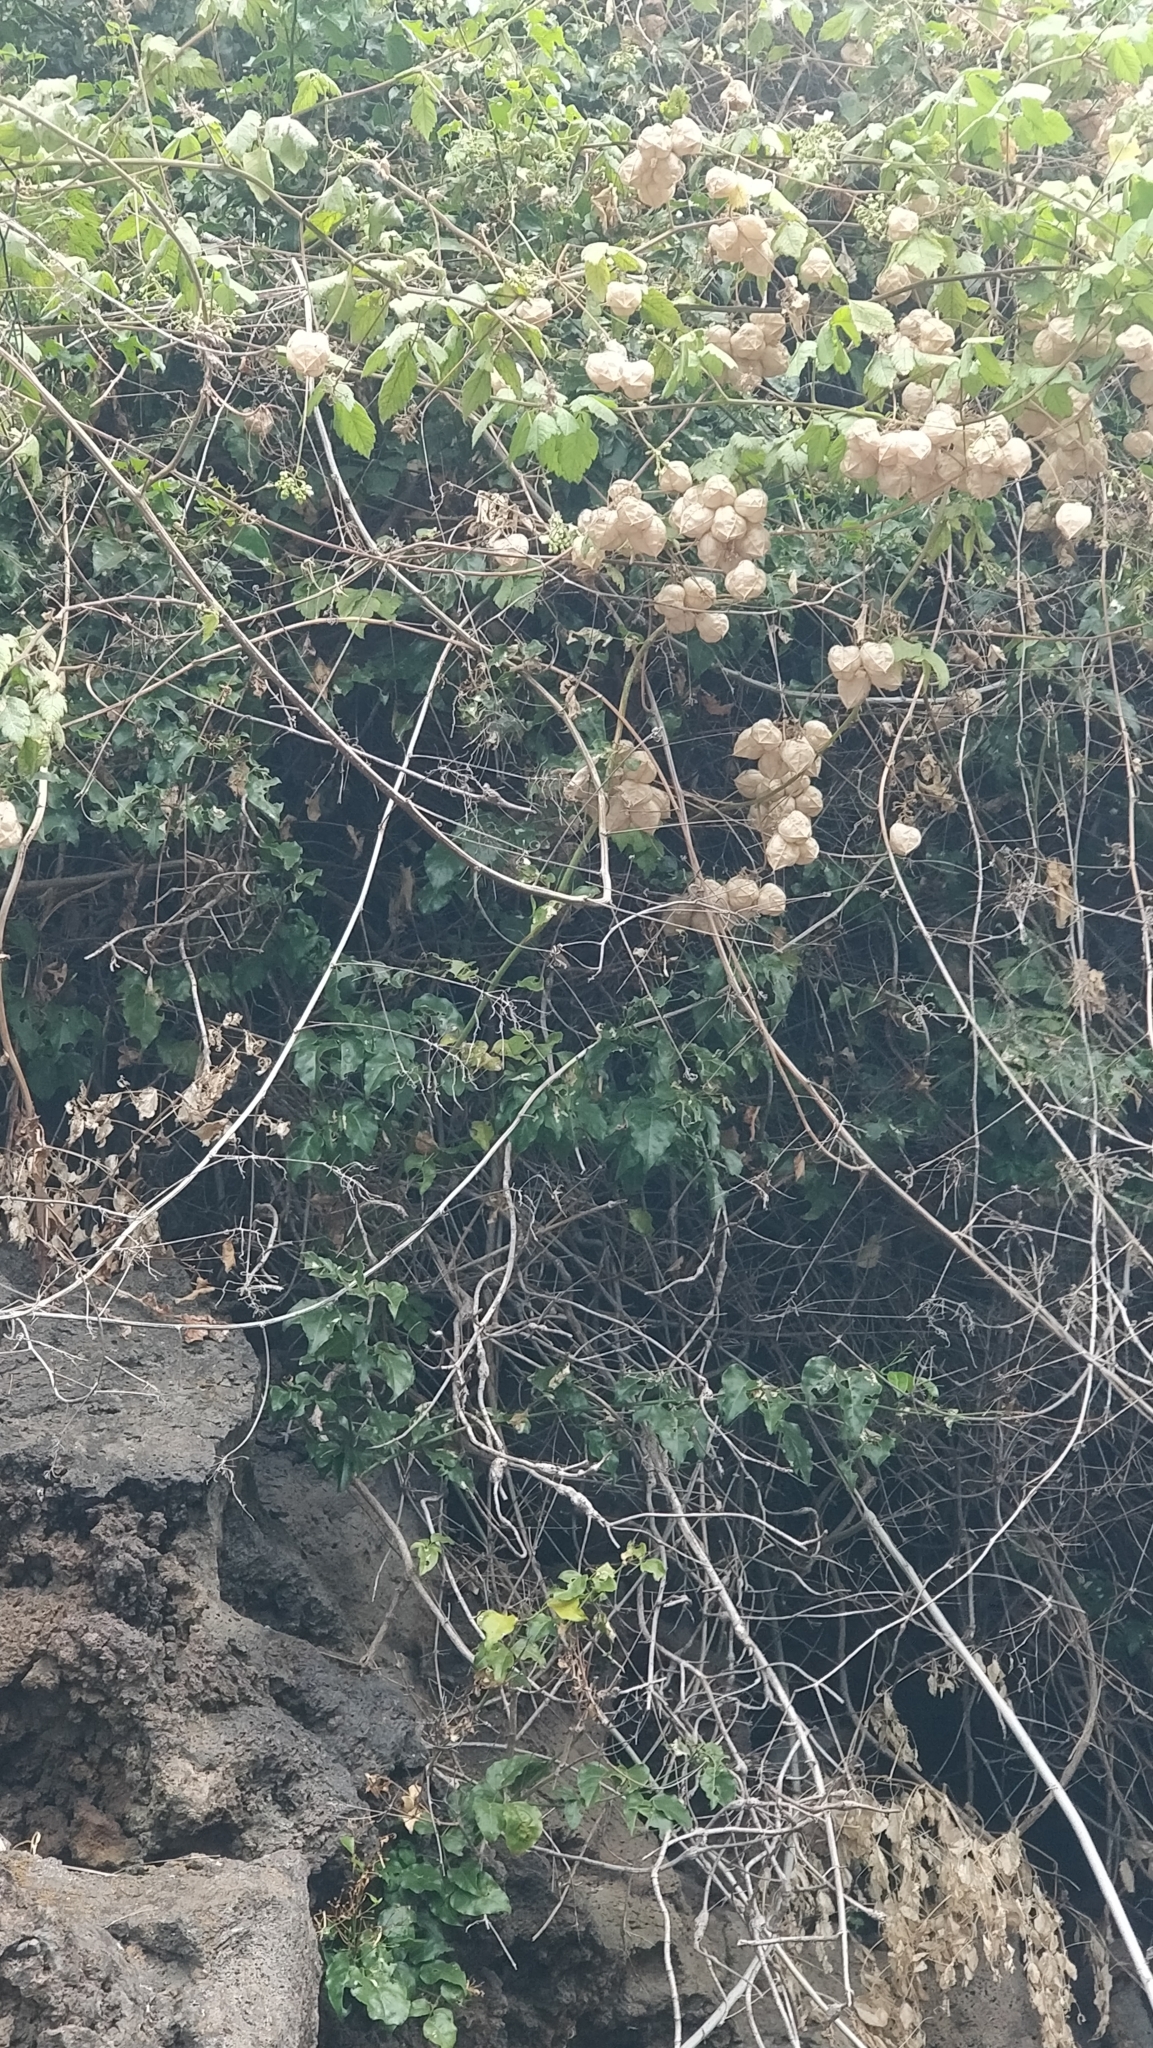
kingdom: Plantae
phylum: Tracheophyta
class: Magnoliopsida
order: Lamiales
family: Oleaceae
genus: Jasminum
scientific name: Jasminum azoricum
